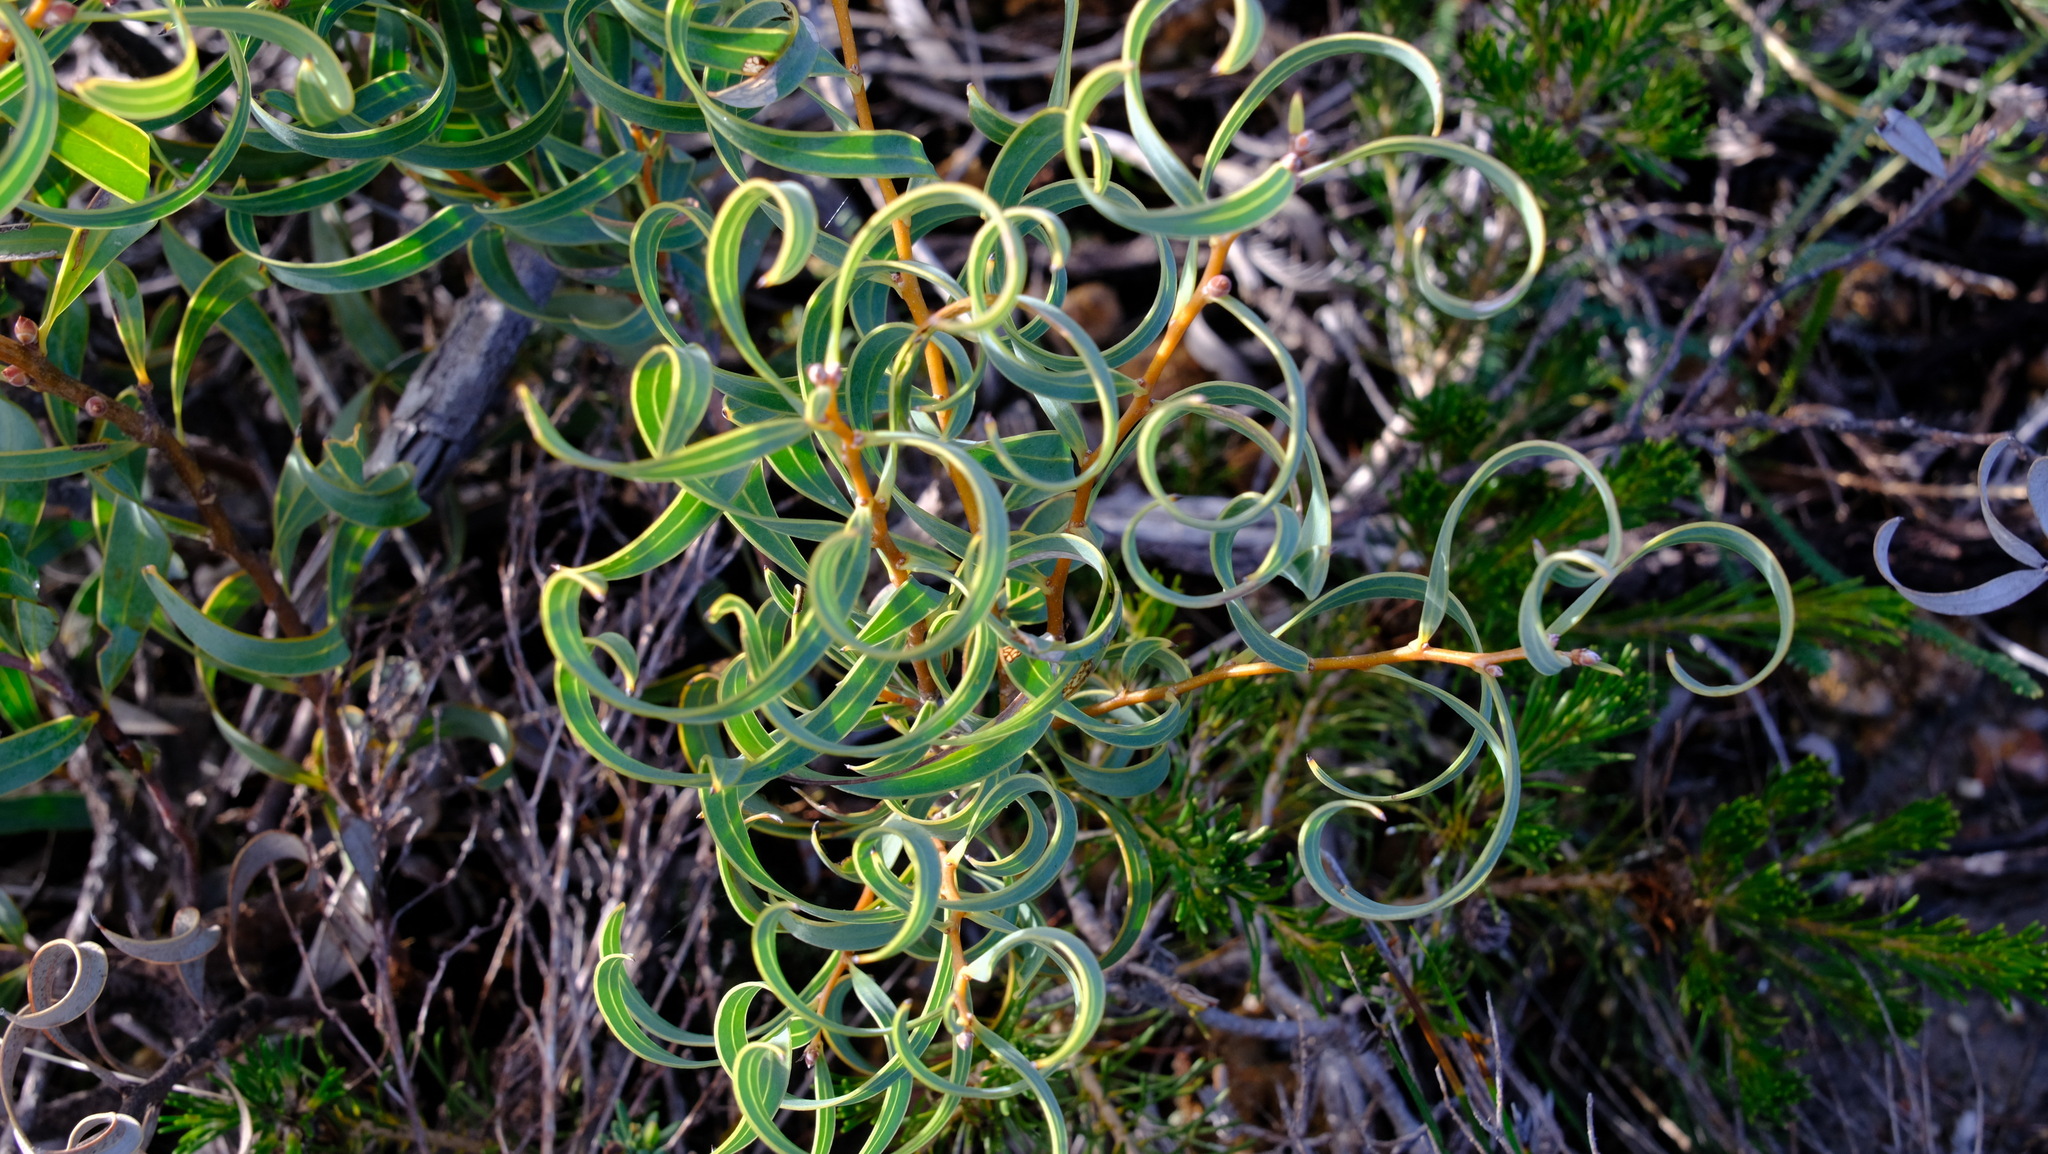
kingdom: Plantae
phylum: Tracheophyta
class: Magnoliopsida
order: Proteales
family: Proteaceae
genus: Hakea
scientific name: Hakea stenocarpa
